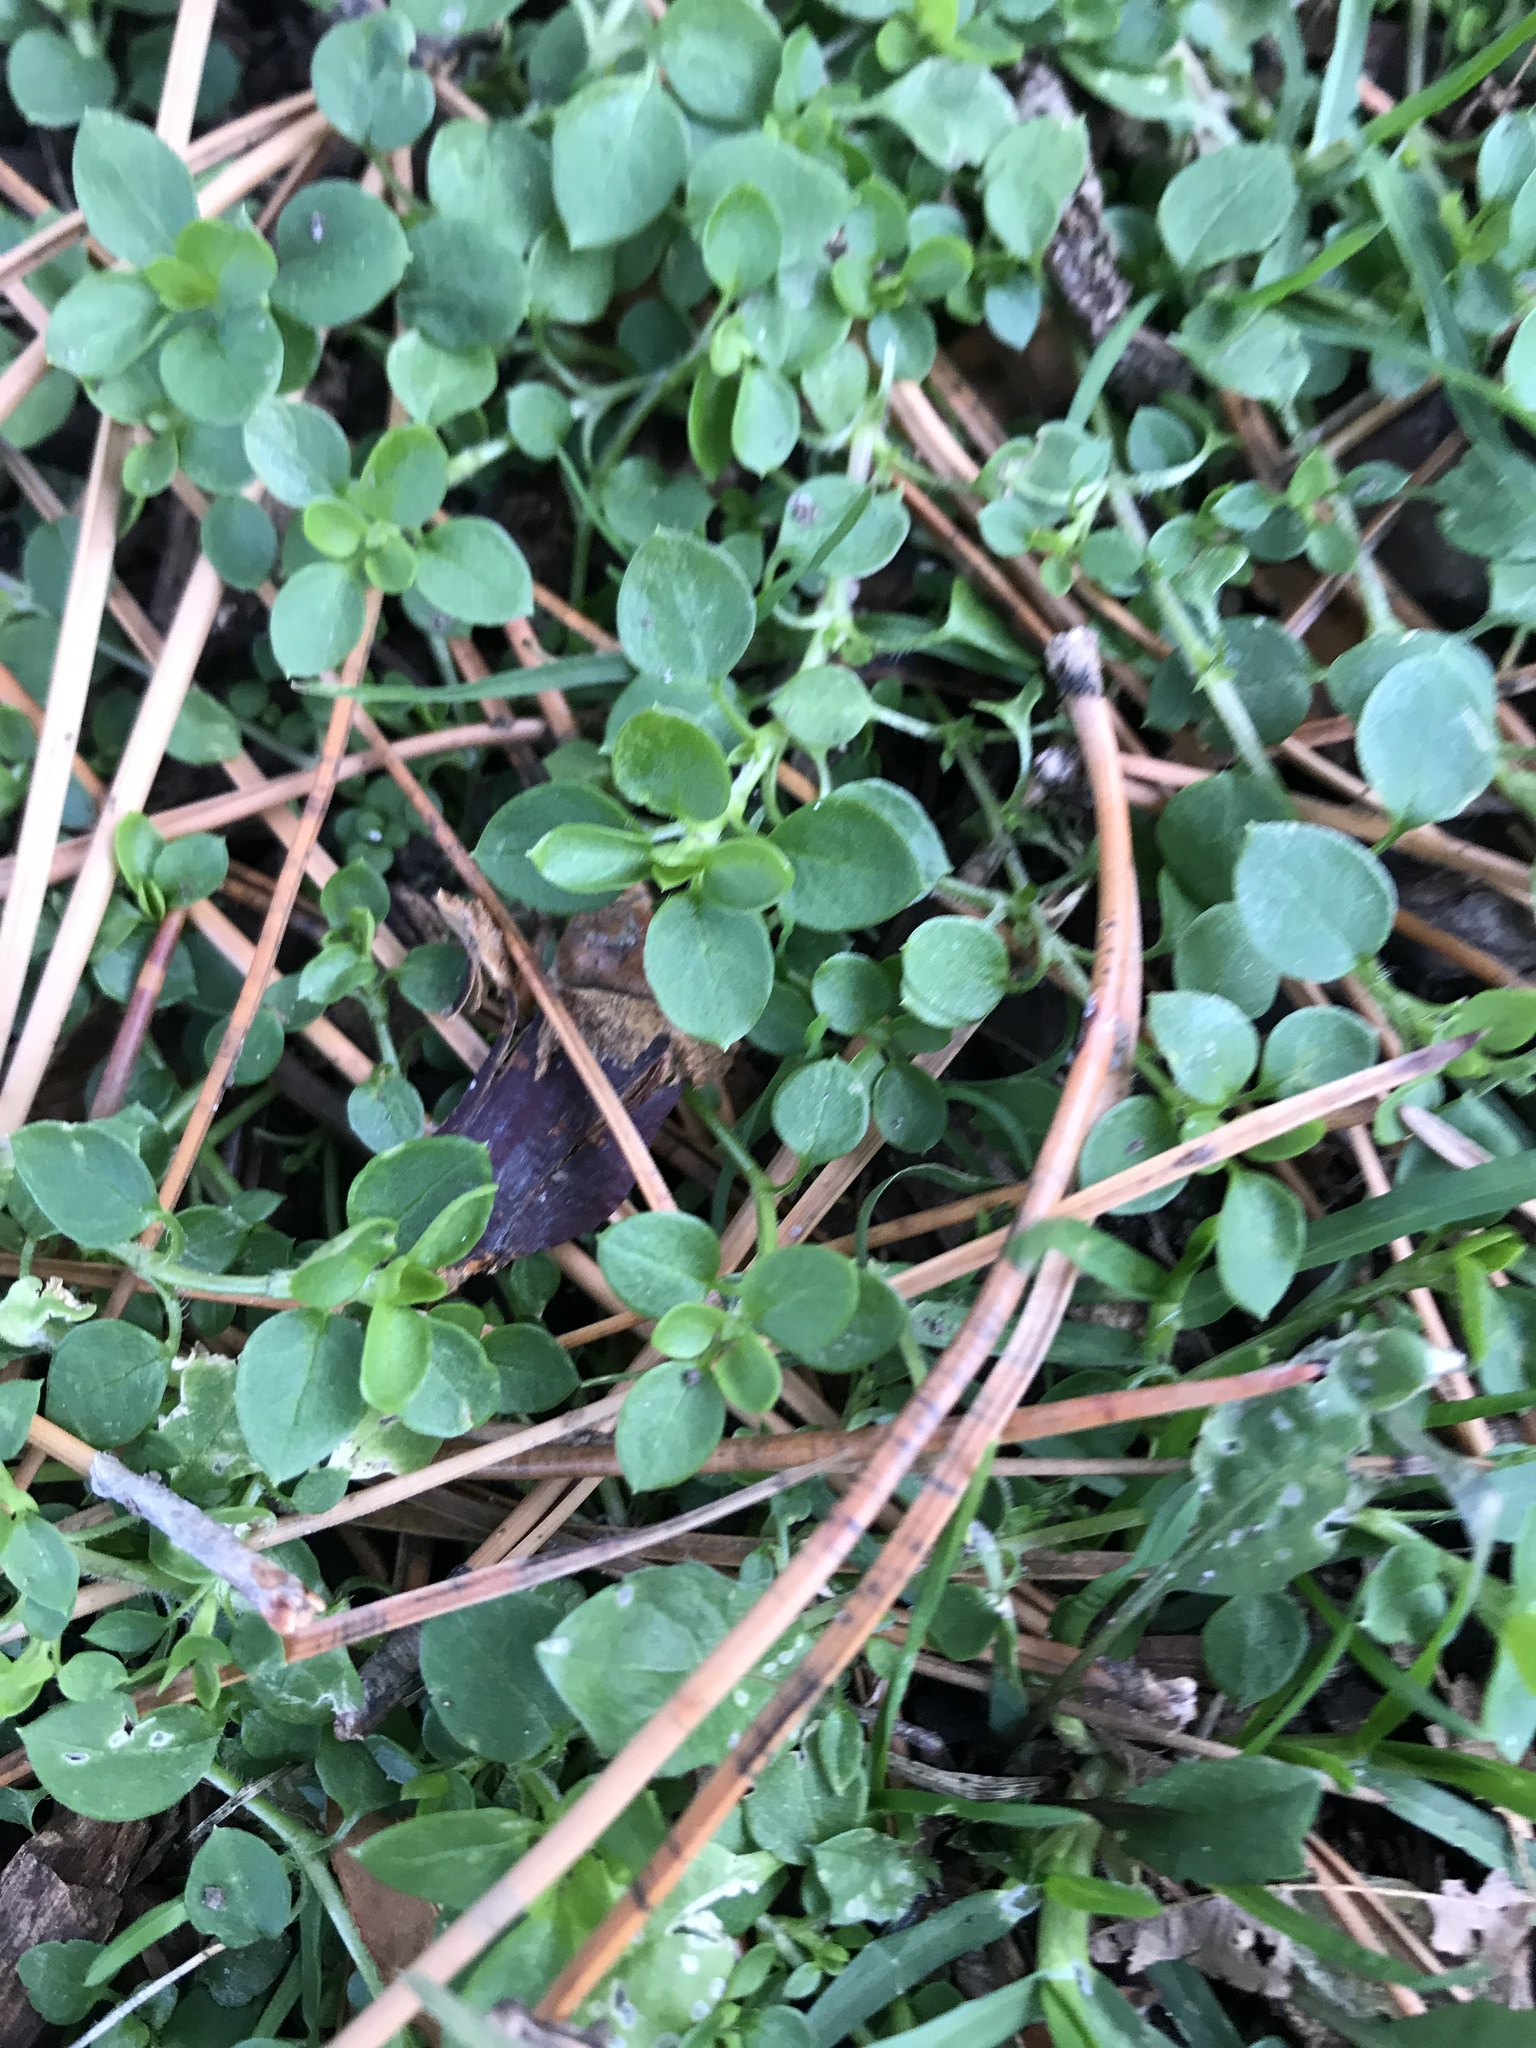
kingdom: Plantae
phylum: Tracheophyta
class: Magnoliopsida
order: Caryophyllales
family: Caryophyllaceae
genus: Stellaria
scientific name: Stellaria media
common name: Common chickweed
